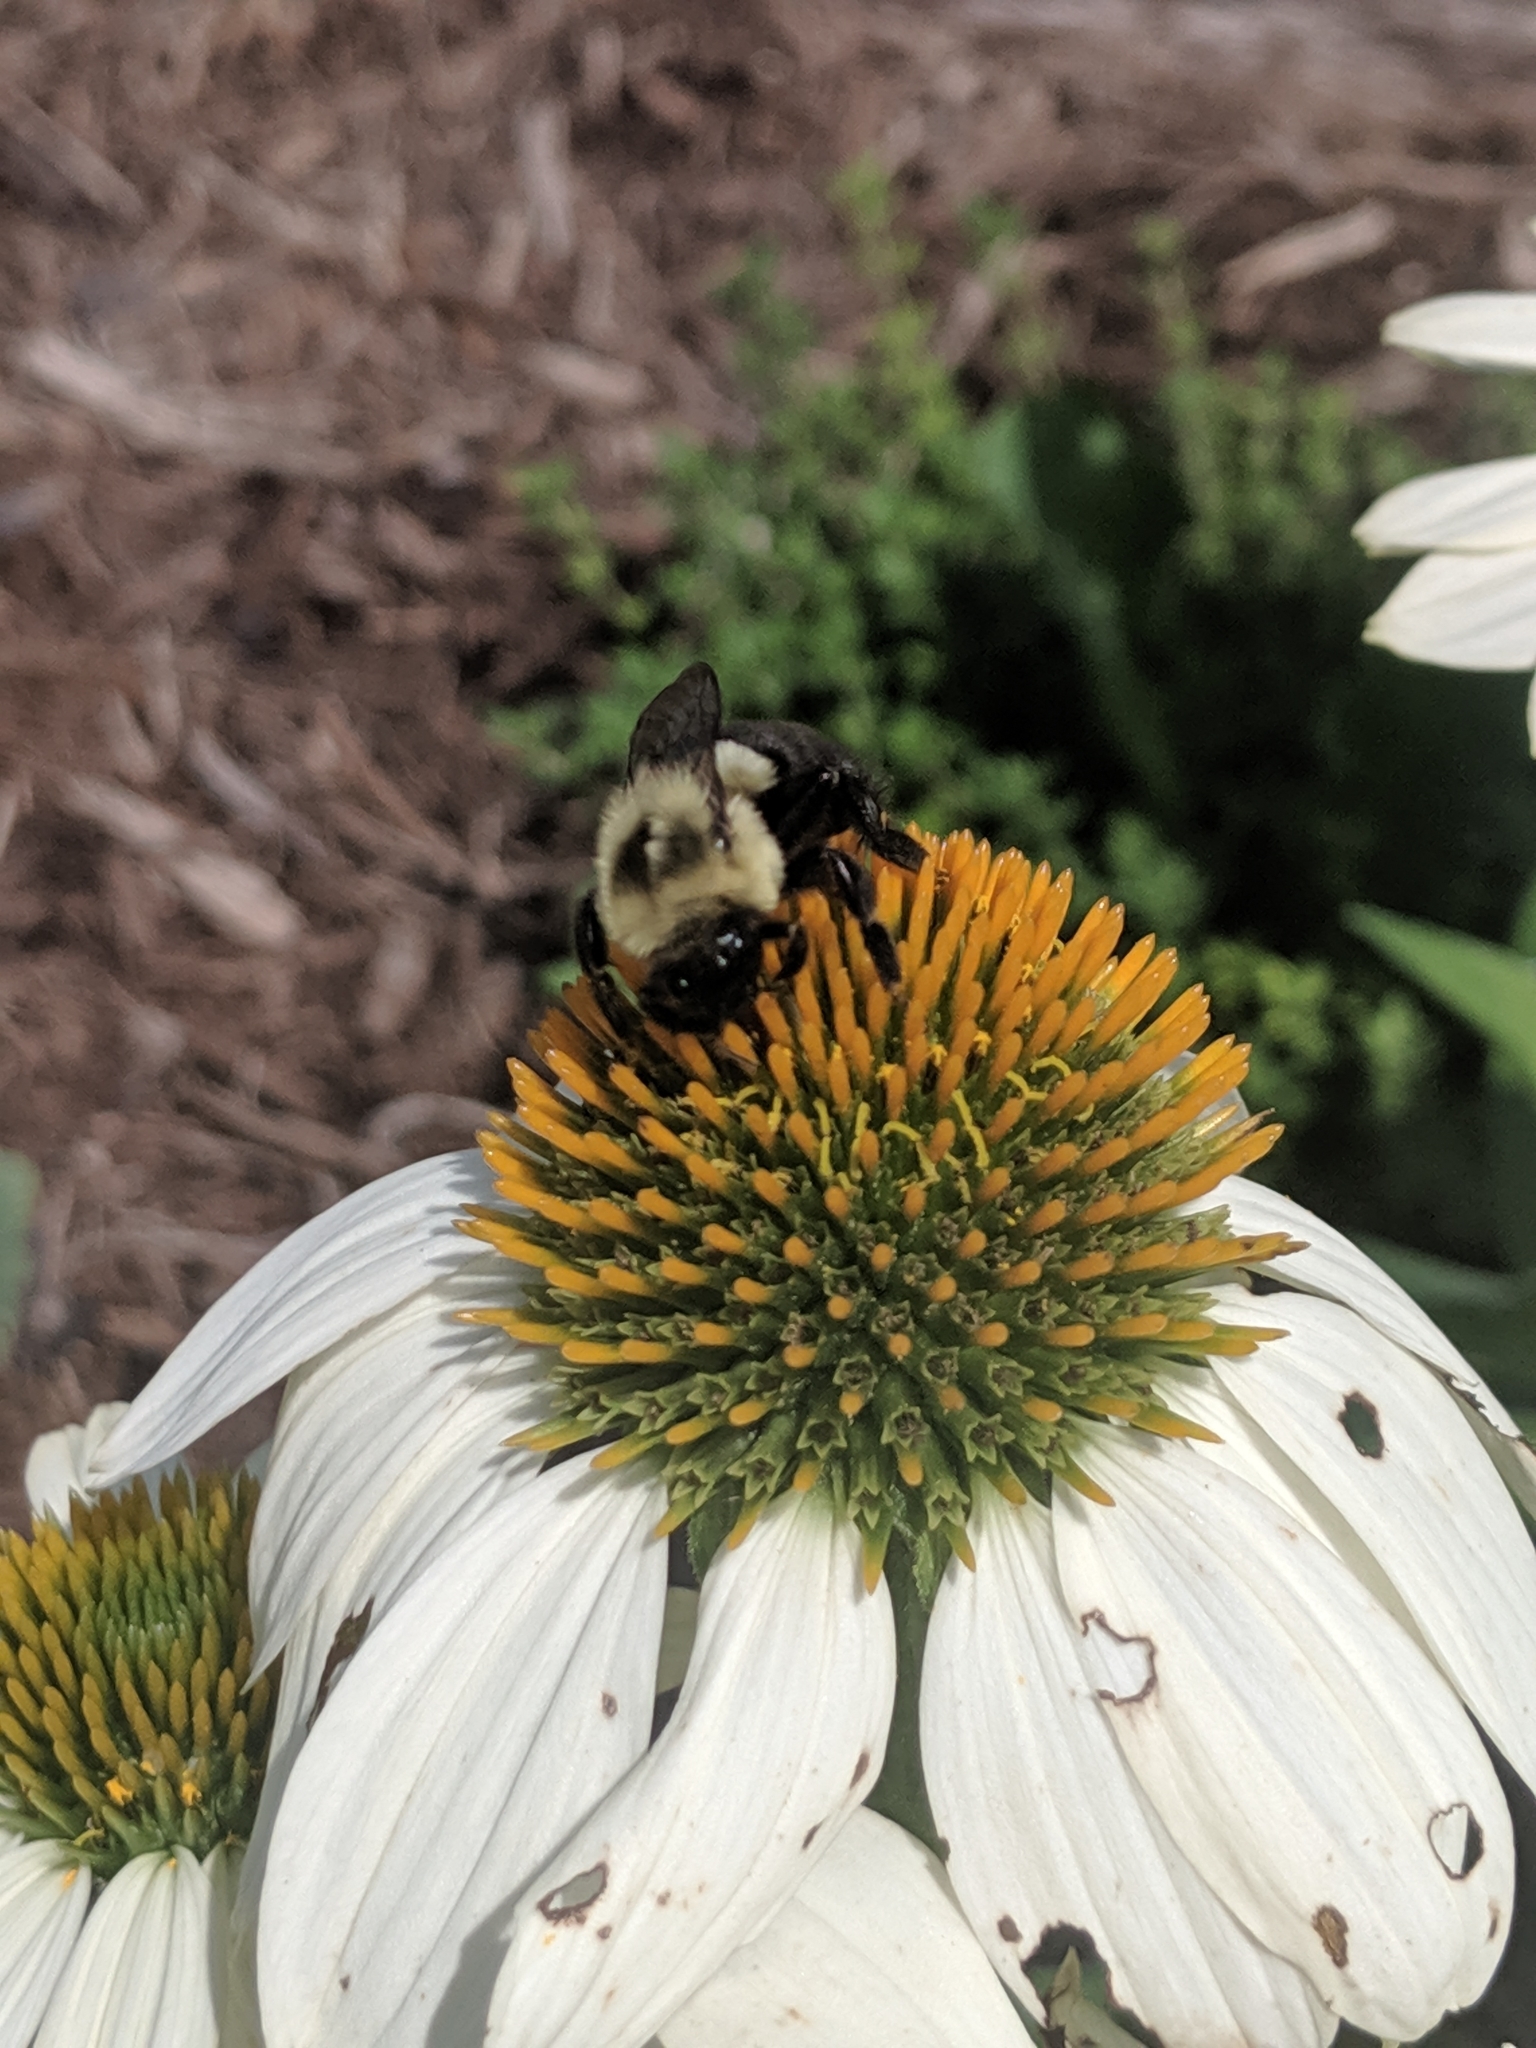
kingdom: Animalia
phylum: Arthropoda
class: Insecta
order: Hymenoptera
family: Apidae
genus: Bombus
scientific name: Bombus impatiens
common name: Common eastern bumble bee
